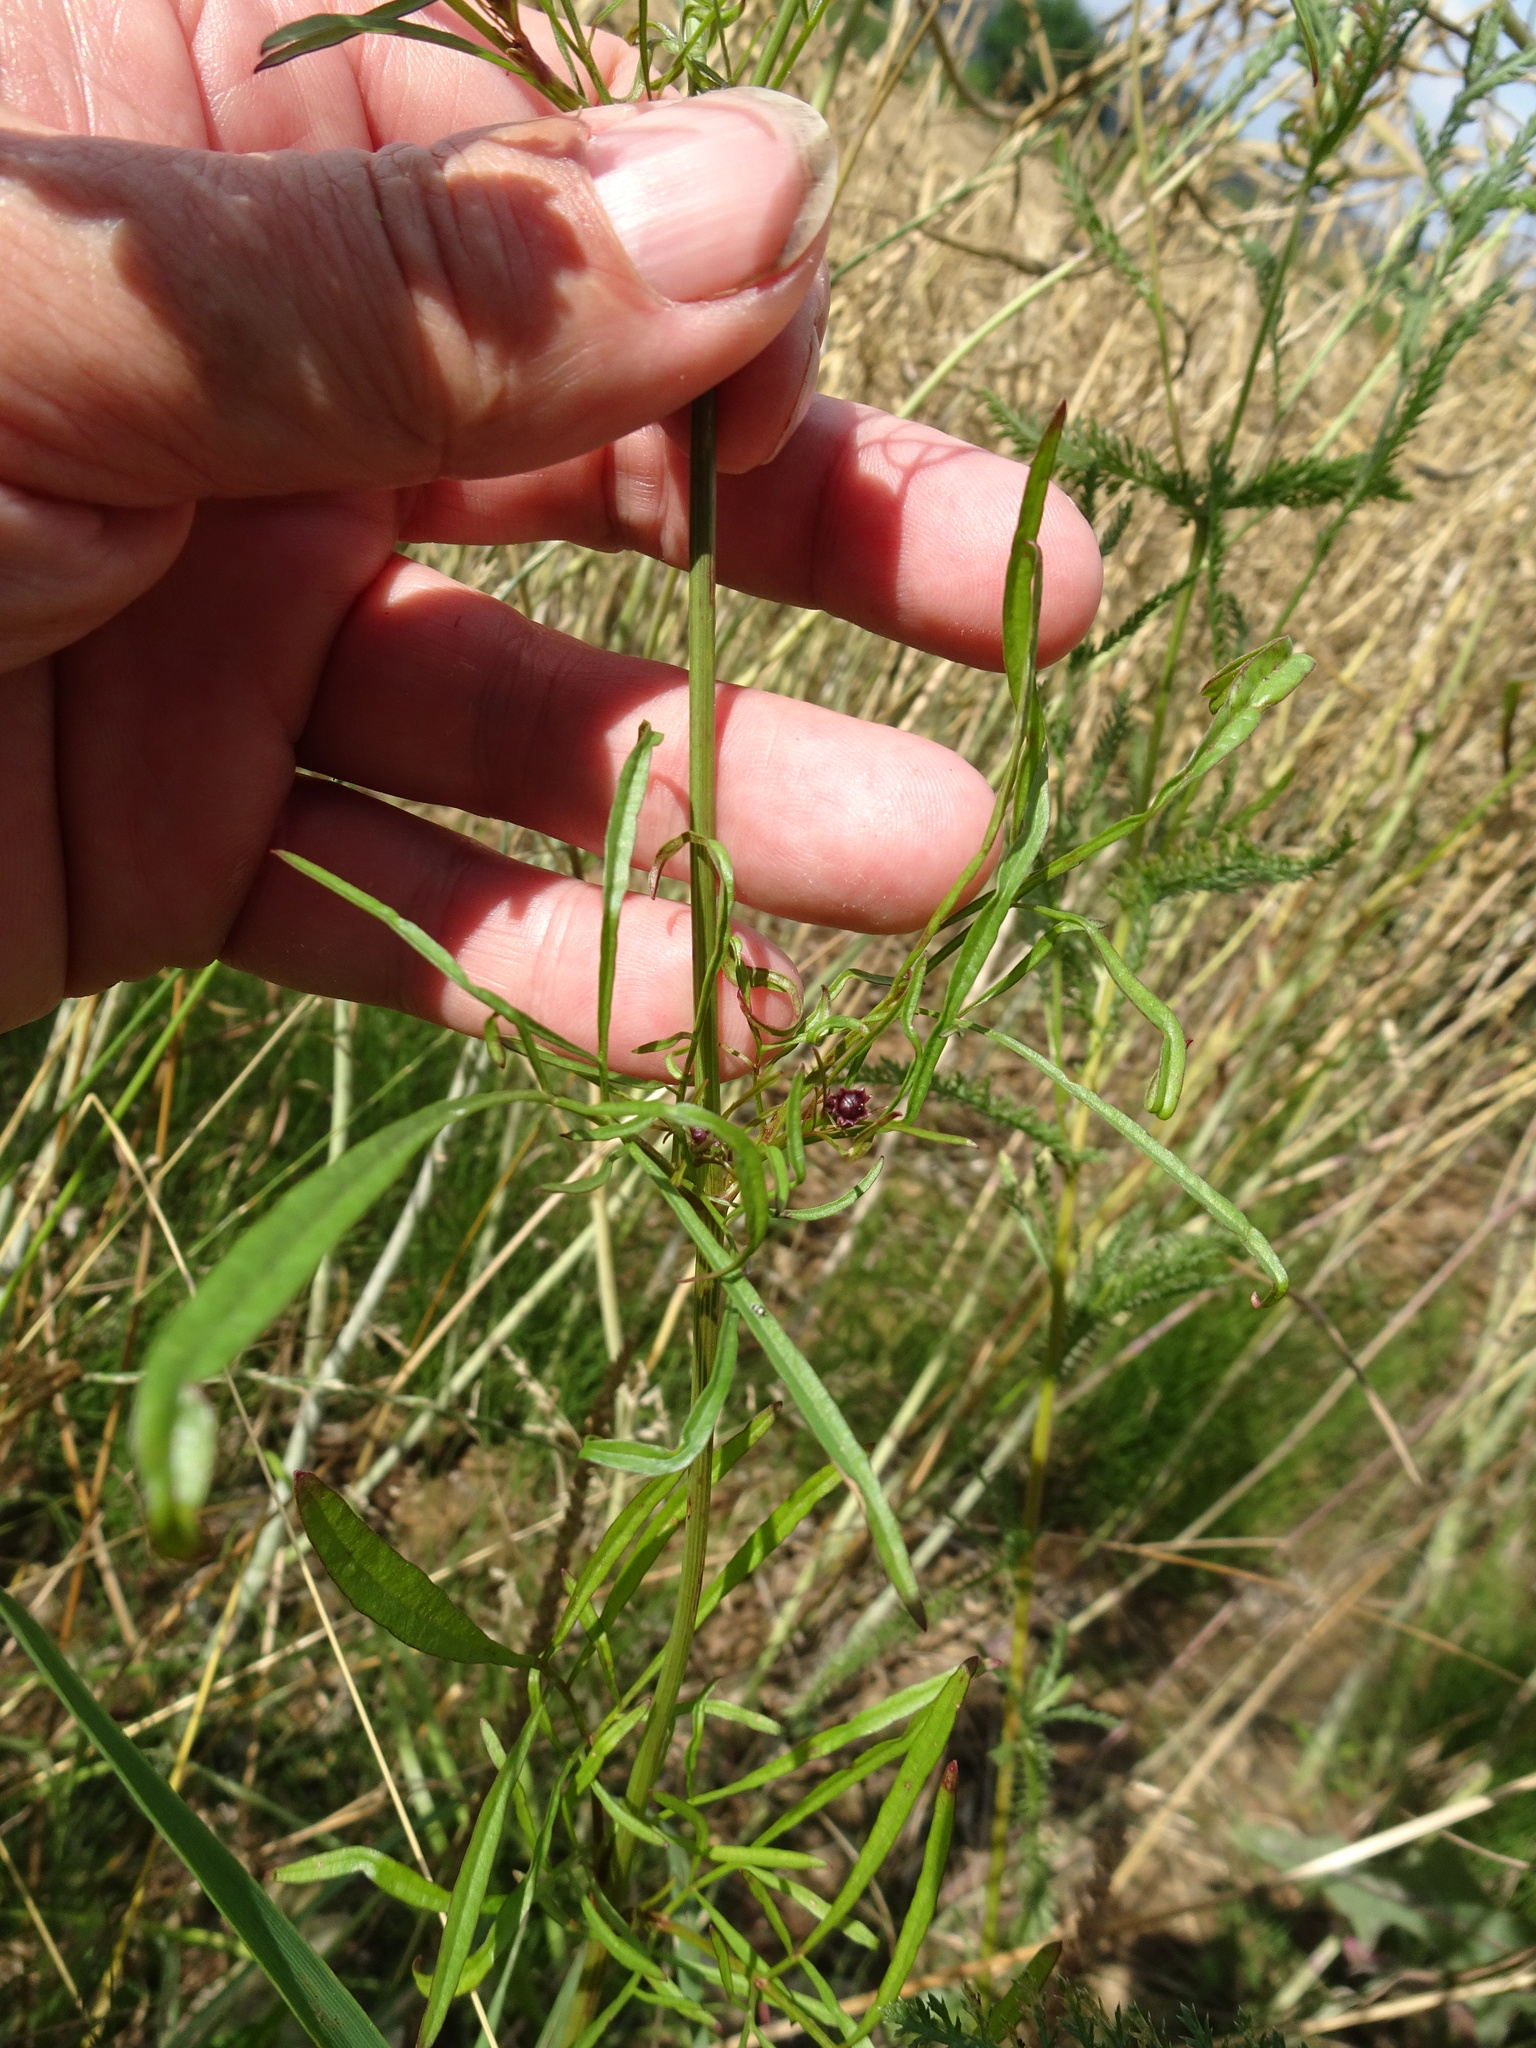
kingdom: Plantae
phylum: Tracheophyta
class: Magnoliopsida
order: Asterales
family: Asteraceae
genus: Coreopsis
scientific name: Coreopsis tinctoria
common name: Garden tickseed
